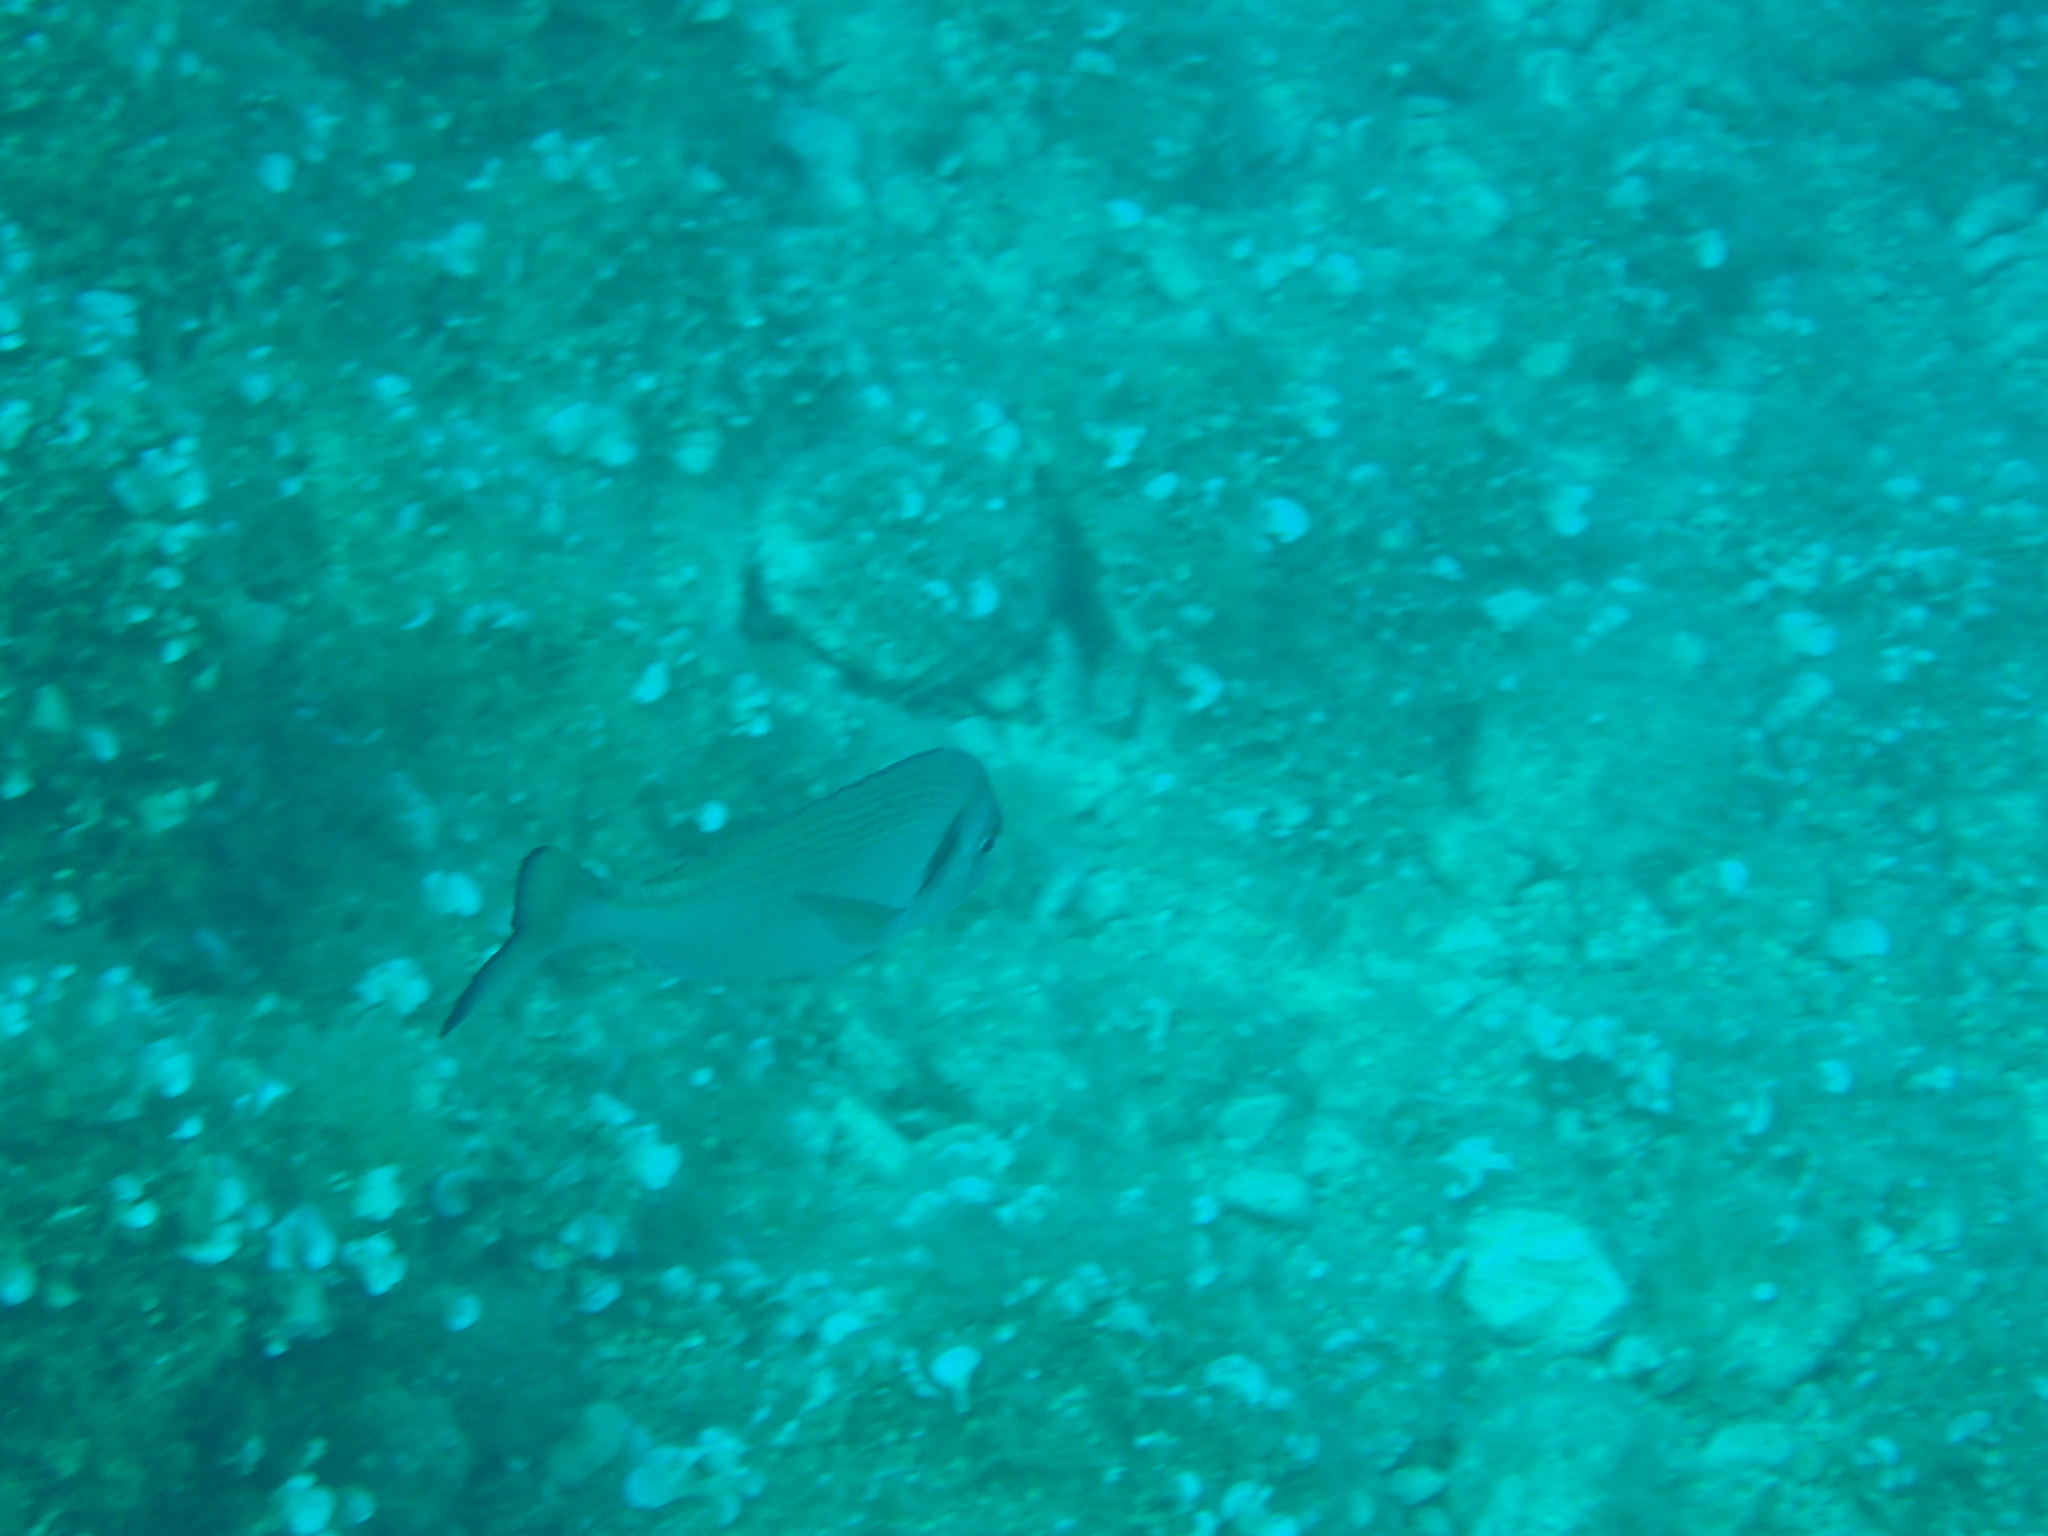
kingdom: Animalia
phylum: Chordata
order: Perciformes
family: Sparidae
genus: Sparus
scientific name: Sparus aurata
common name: Gilthead
